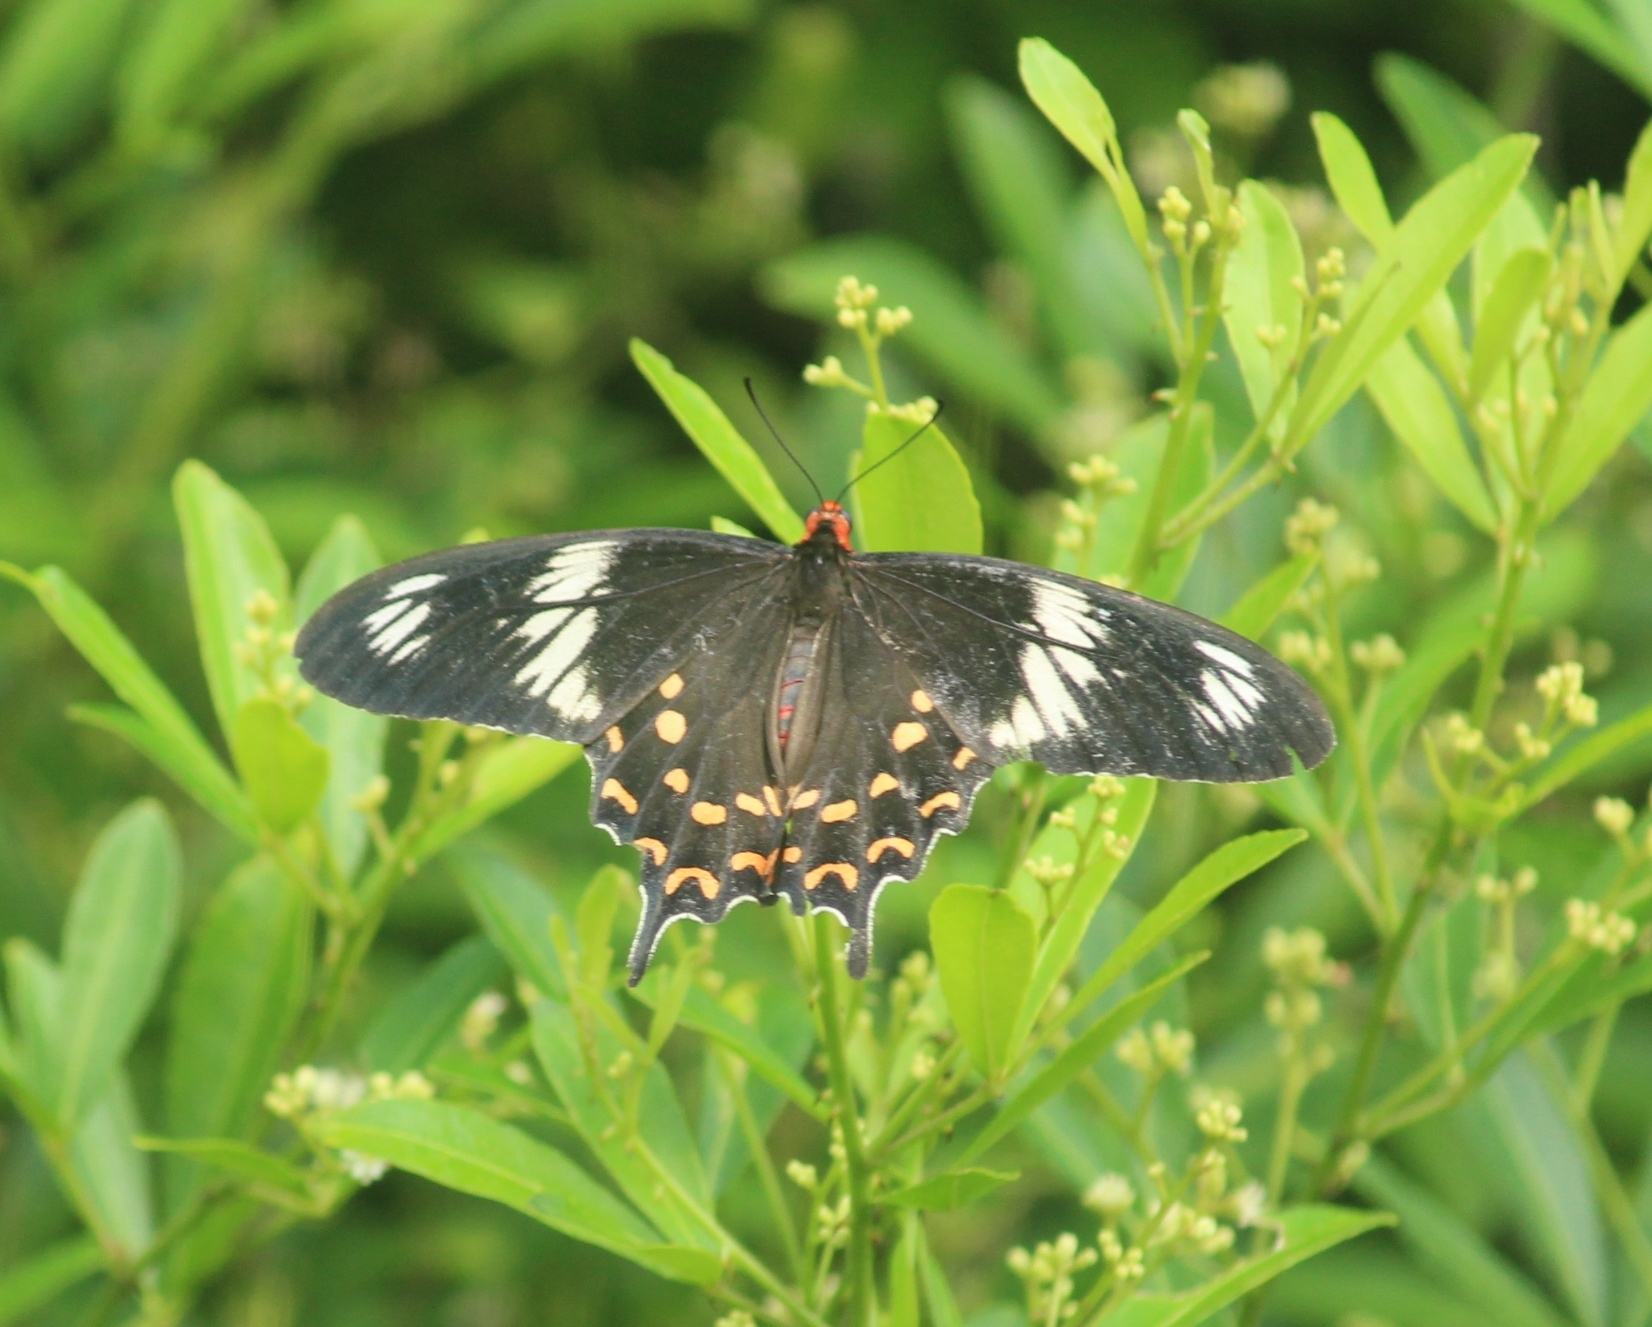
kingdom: Animalia
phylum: Arthropoda
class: Insecta
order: Lepidoptera
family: Papilionidae
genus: Pachliopta
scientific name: Pachliopta hector
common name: Crimson rose
